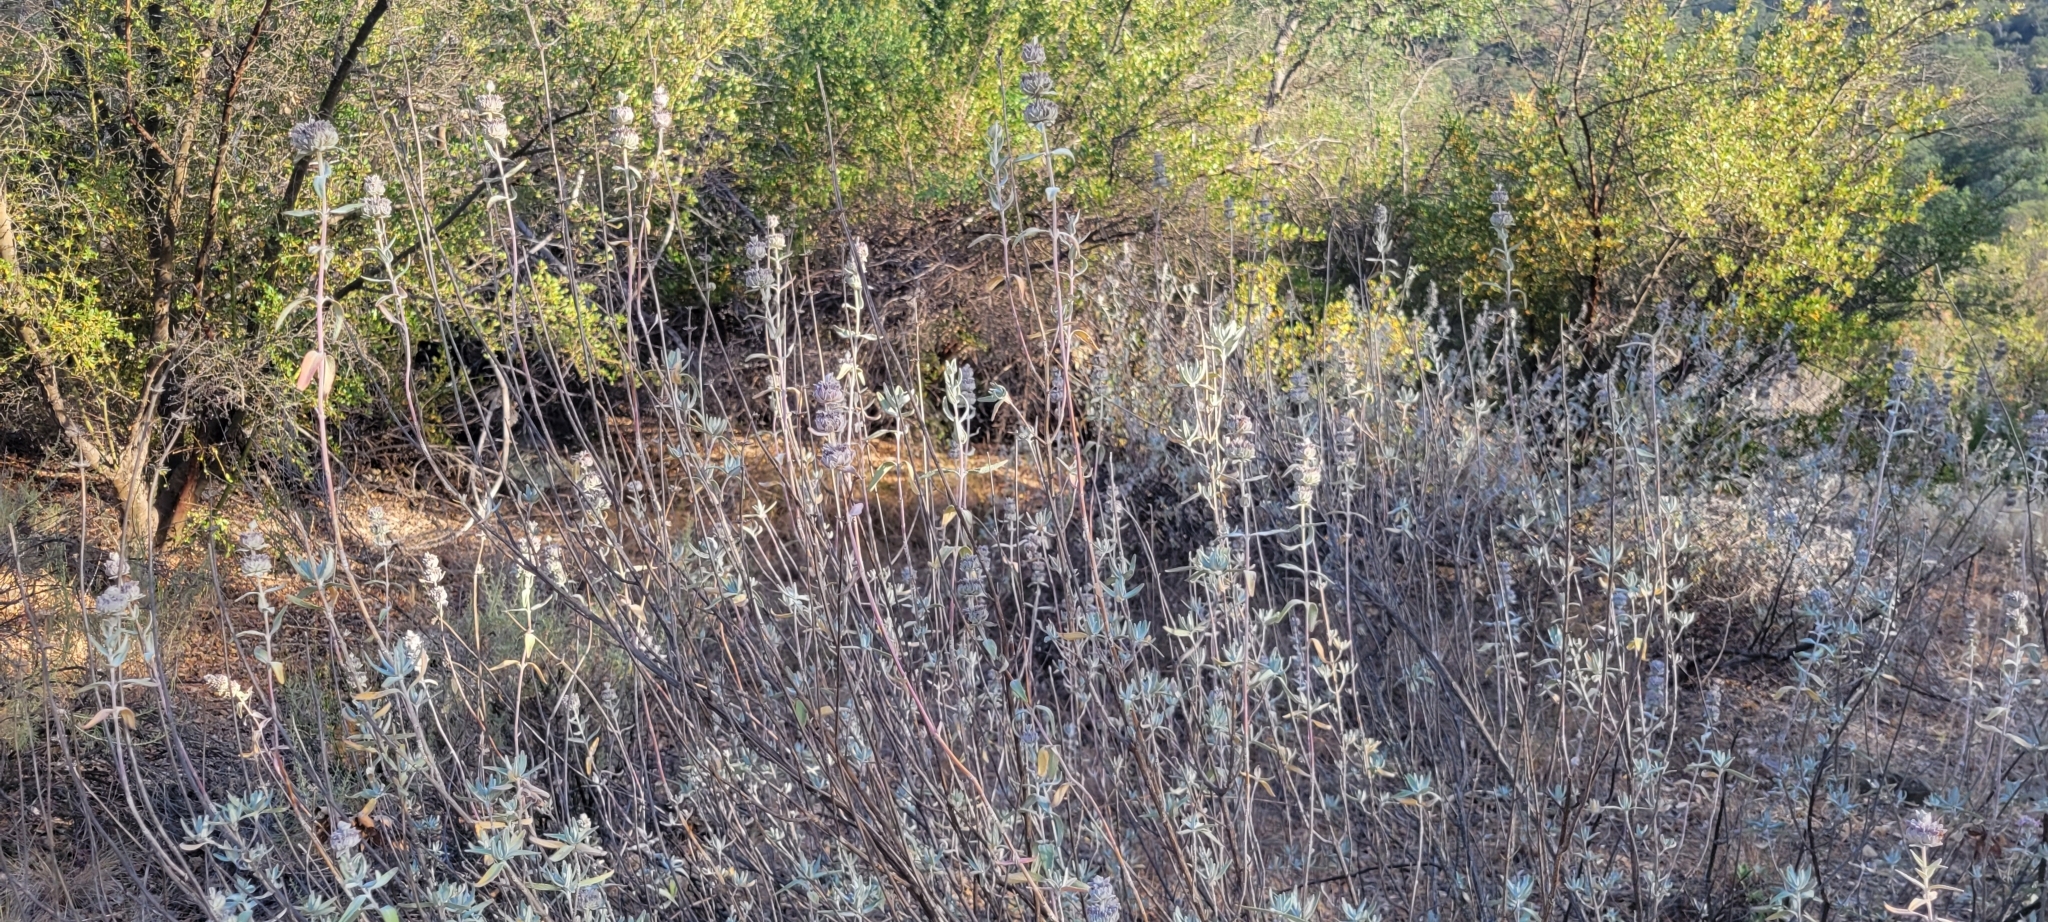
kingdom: Plantae
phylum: Tracheophyta
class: Magnoliopsida
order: Lamiales
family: Lamiaceae
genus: Salvia
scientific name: Salvia leucophylla
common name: Purple sage
